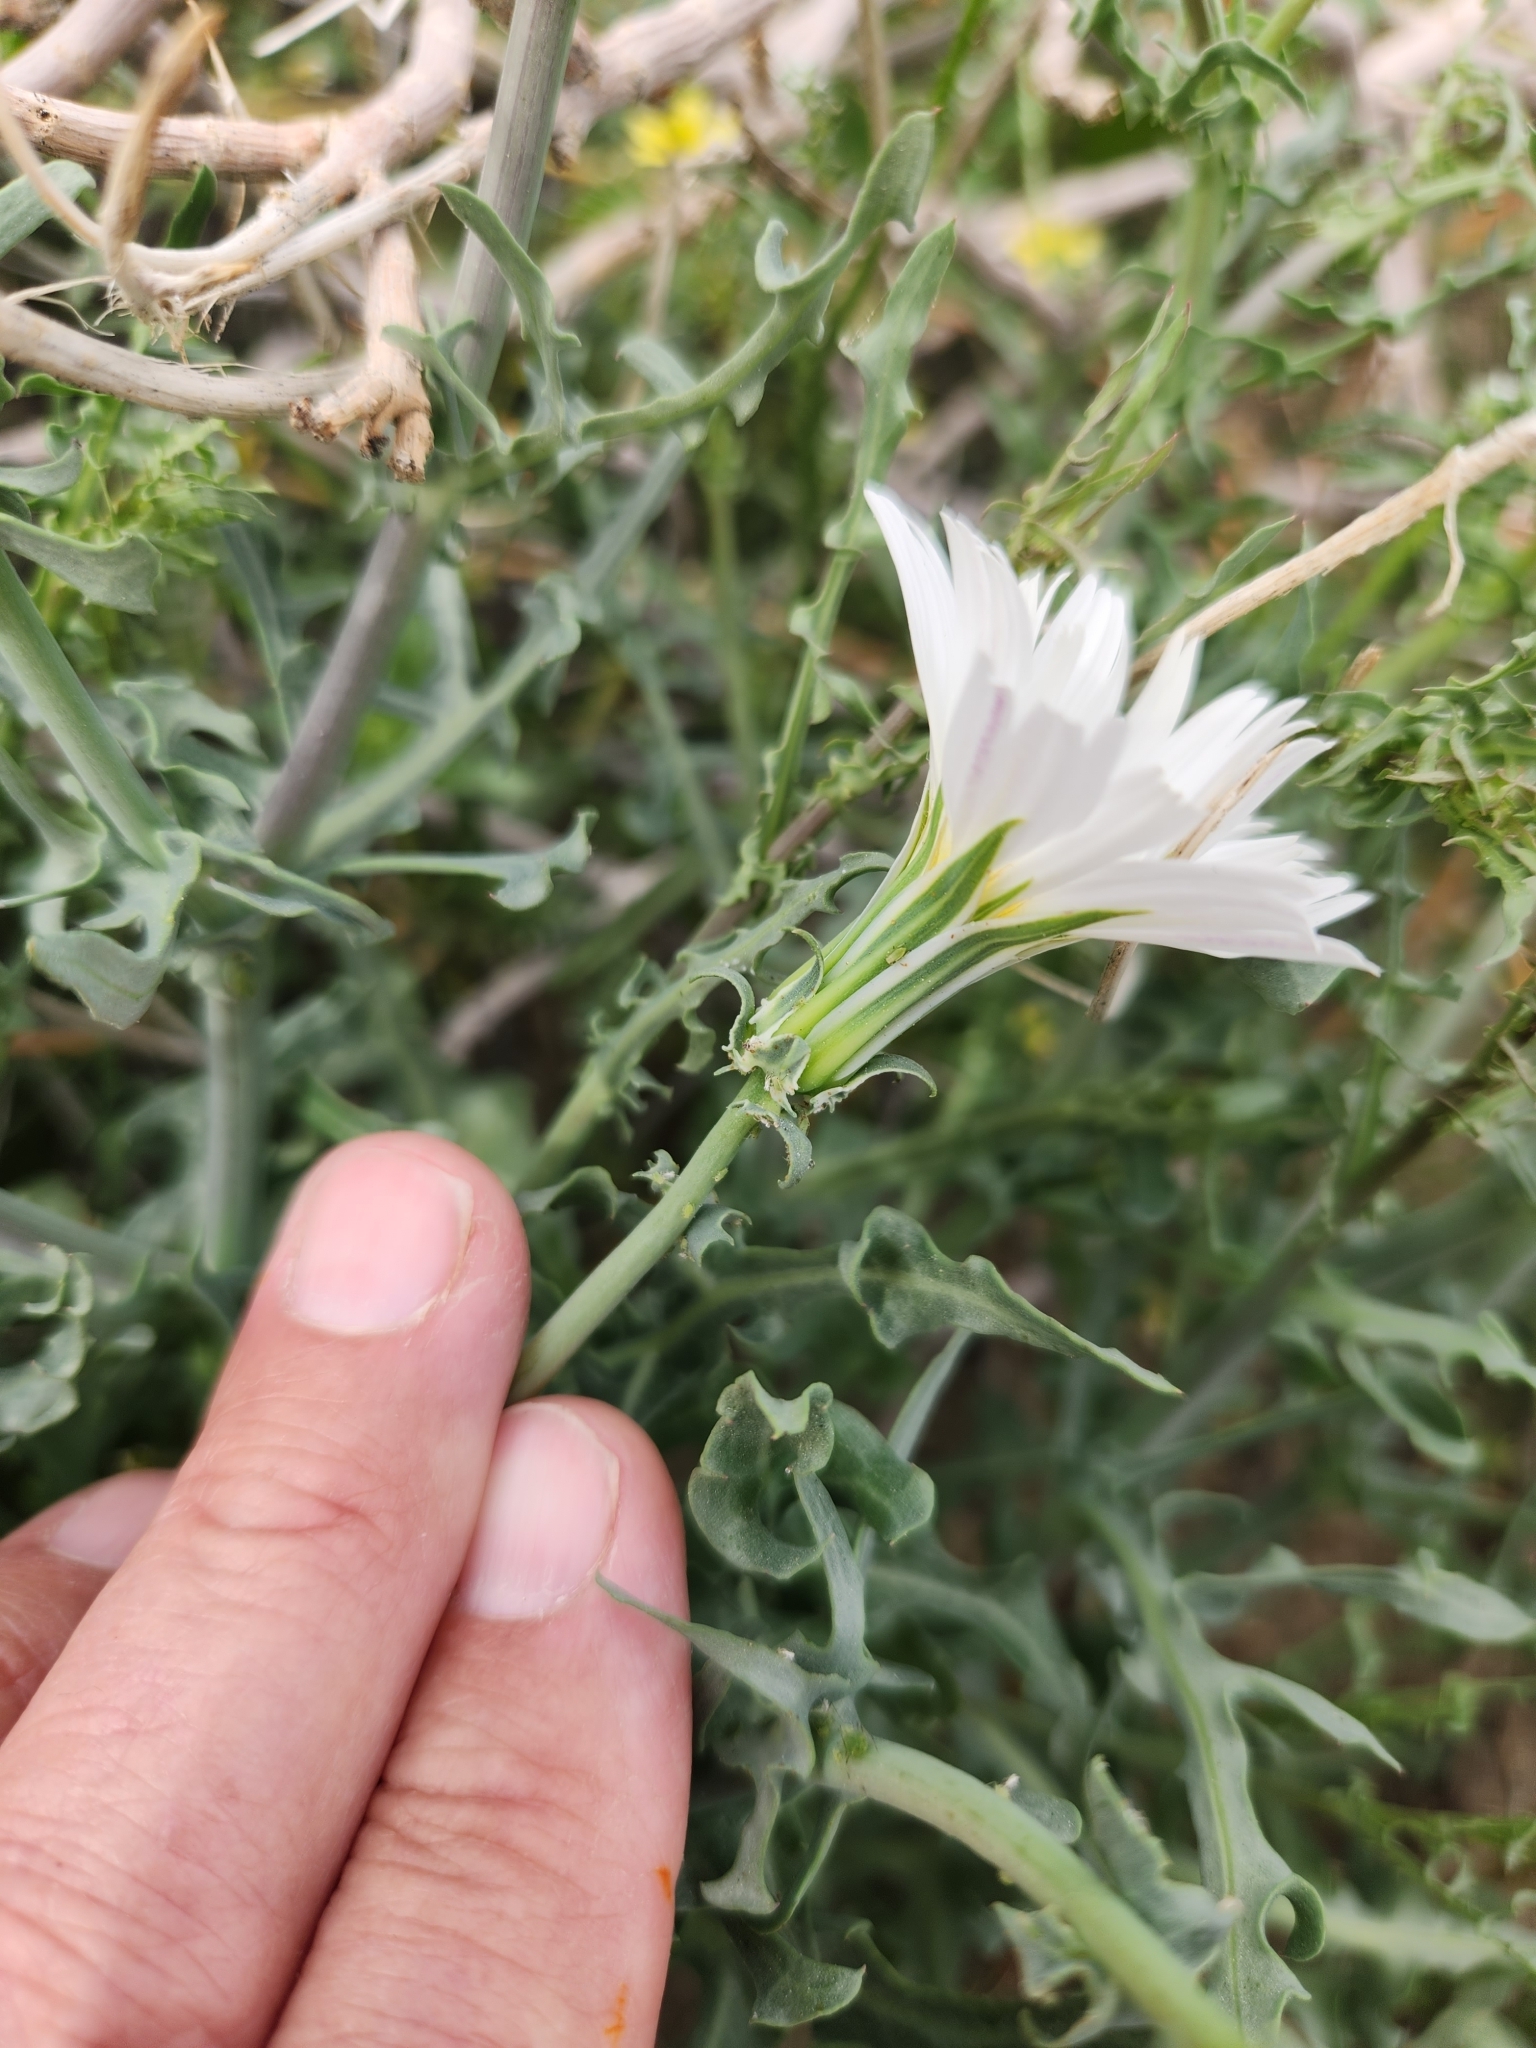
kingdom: Plantae
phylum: Tracheophyta
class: Magnoliopsida
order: Asterales
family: Asteraceae
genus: Rafinesquia
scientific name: Rafinesquia neomexicana
